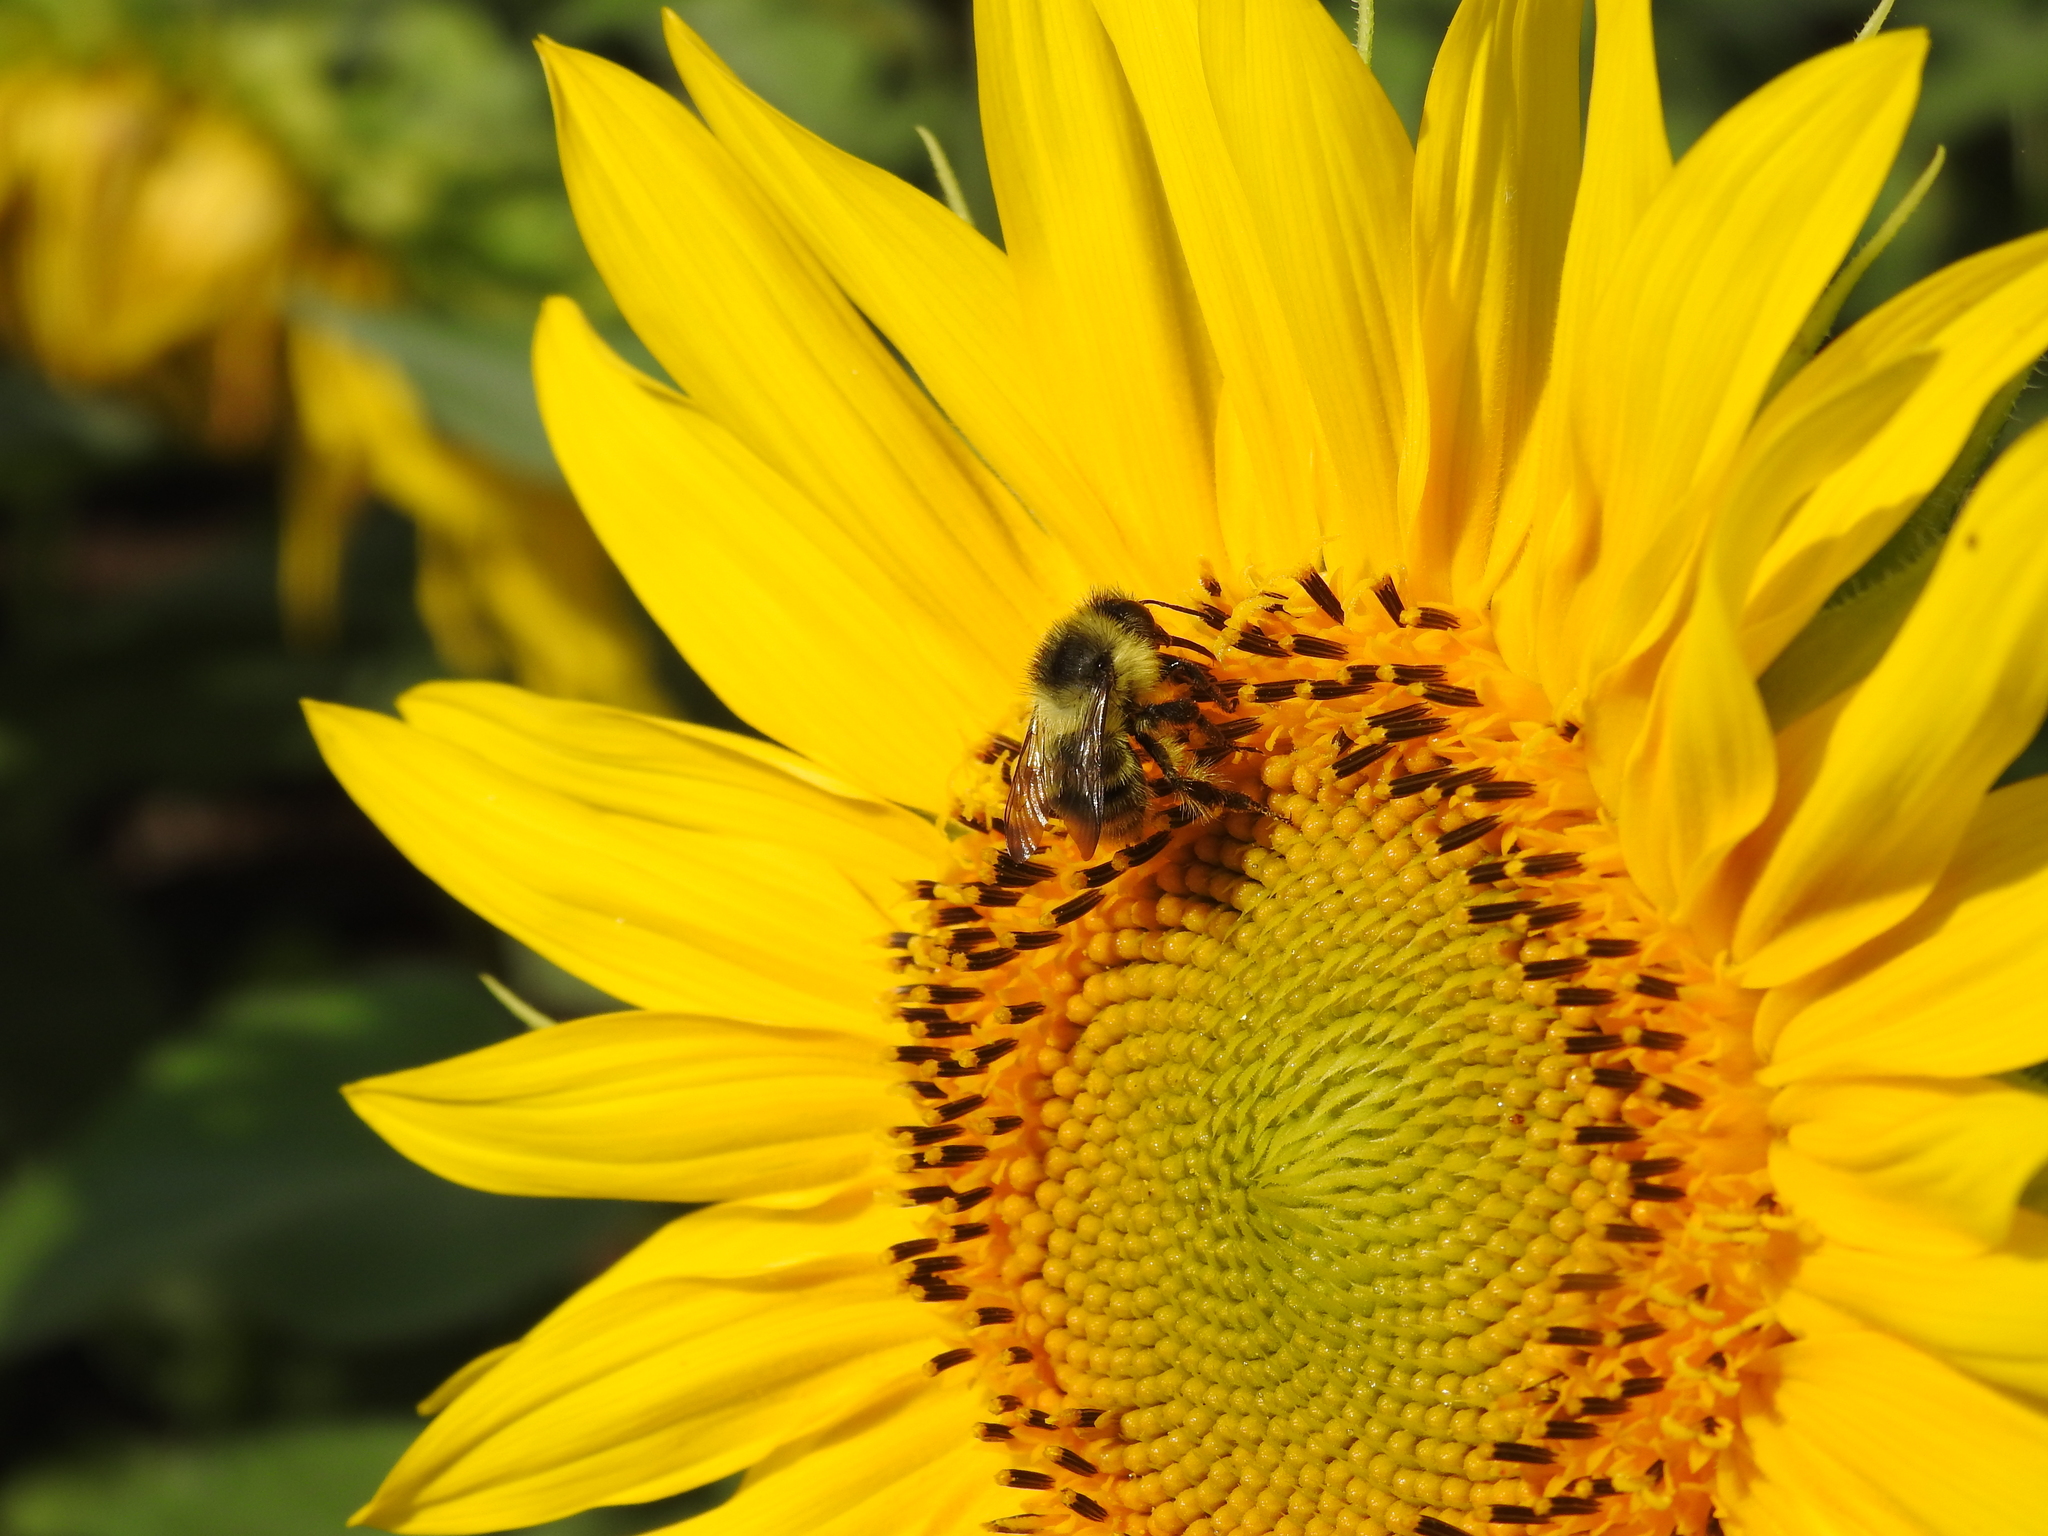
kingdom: Animalia
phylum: Arthropoda
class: Insecta
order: Hymenoptera
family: Apidae
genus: Bombus
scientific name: Bombus sylvarum
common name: Shrill carder bee
